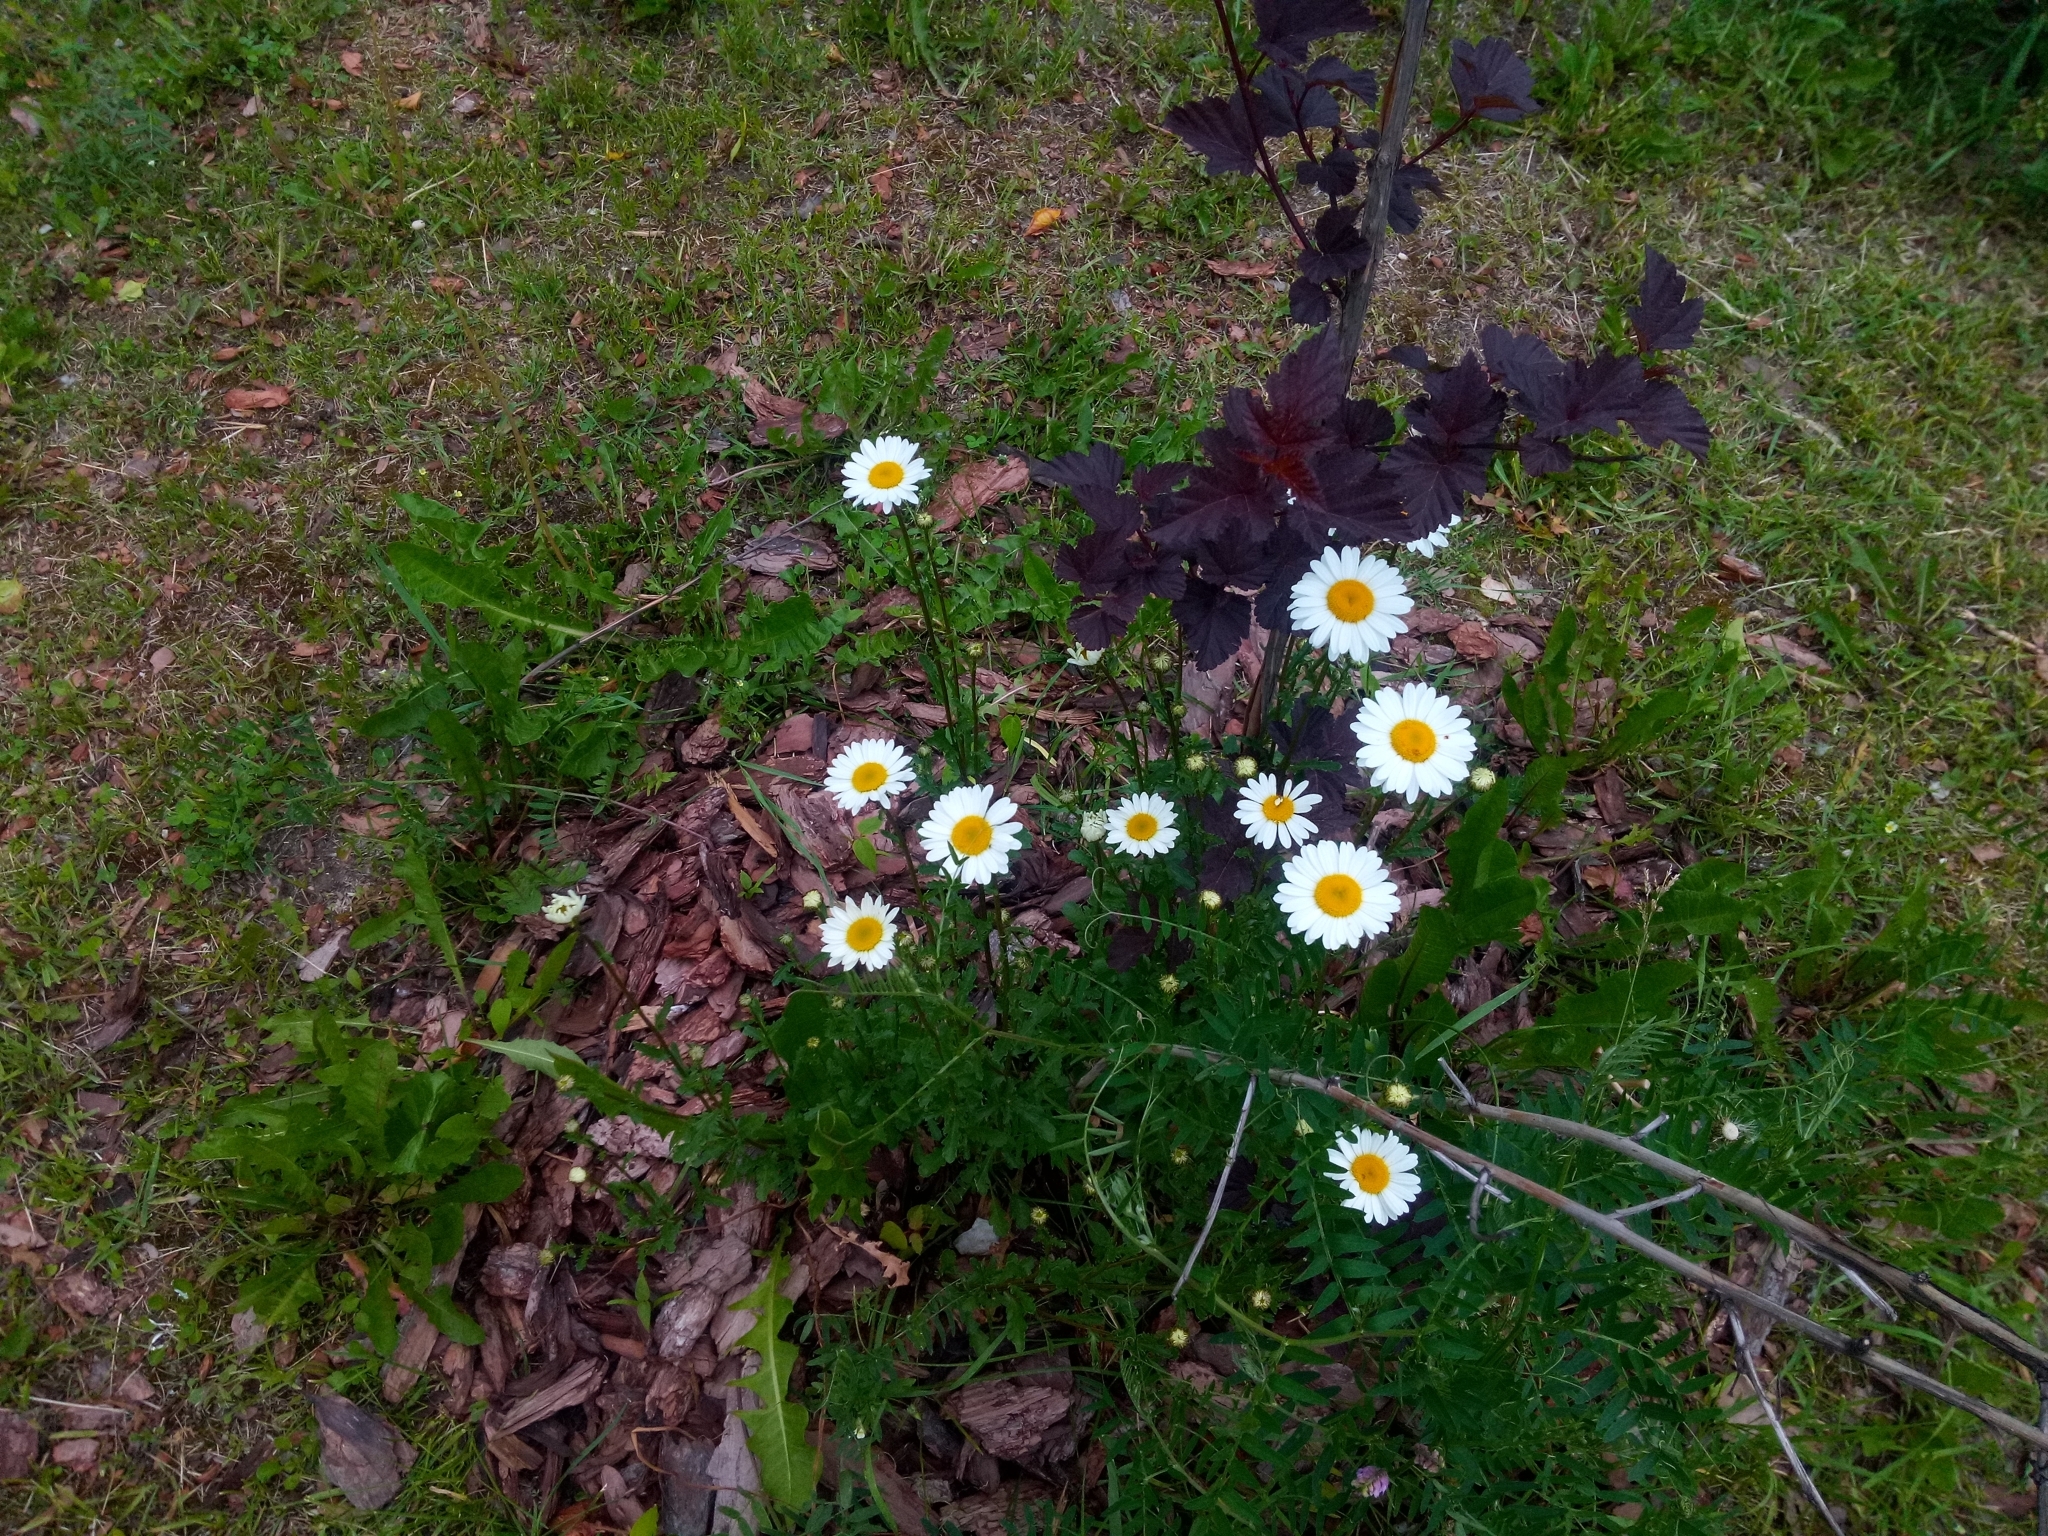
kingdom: Plantae
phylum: Tracheophyta
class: Magnoliopsida
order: Asterales
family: Asteraceae
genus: Leucanthemum
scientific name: Leucanthemum vulgare
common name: Oxeye daisy
